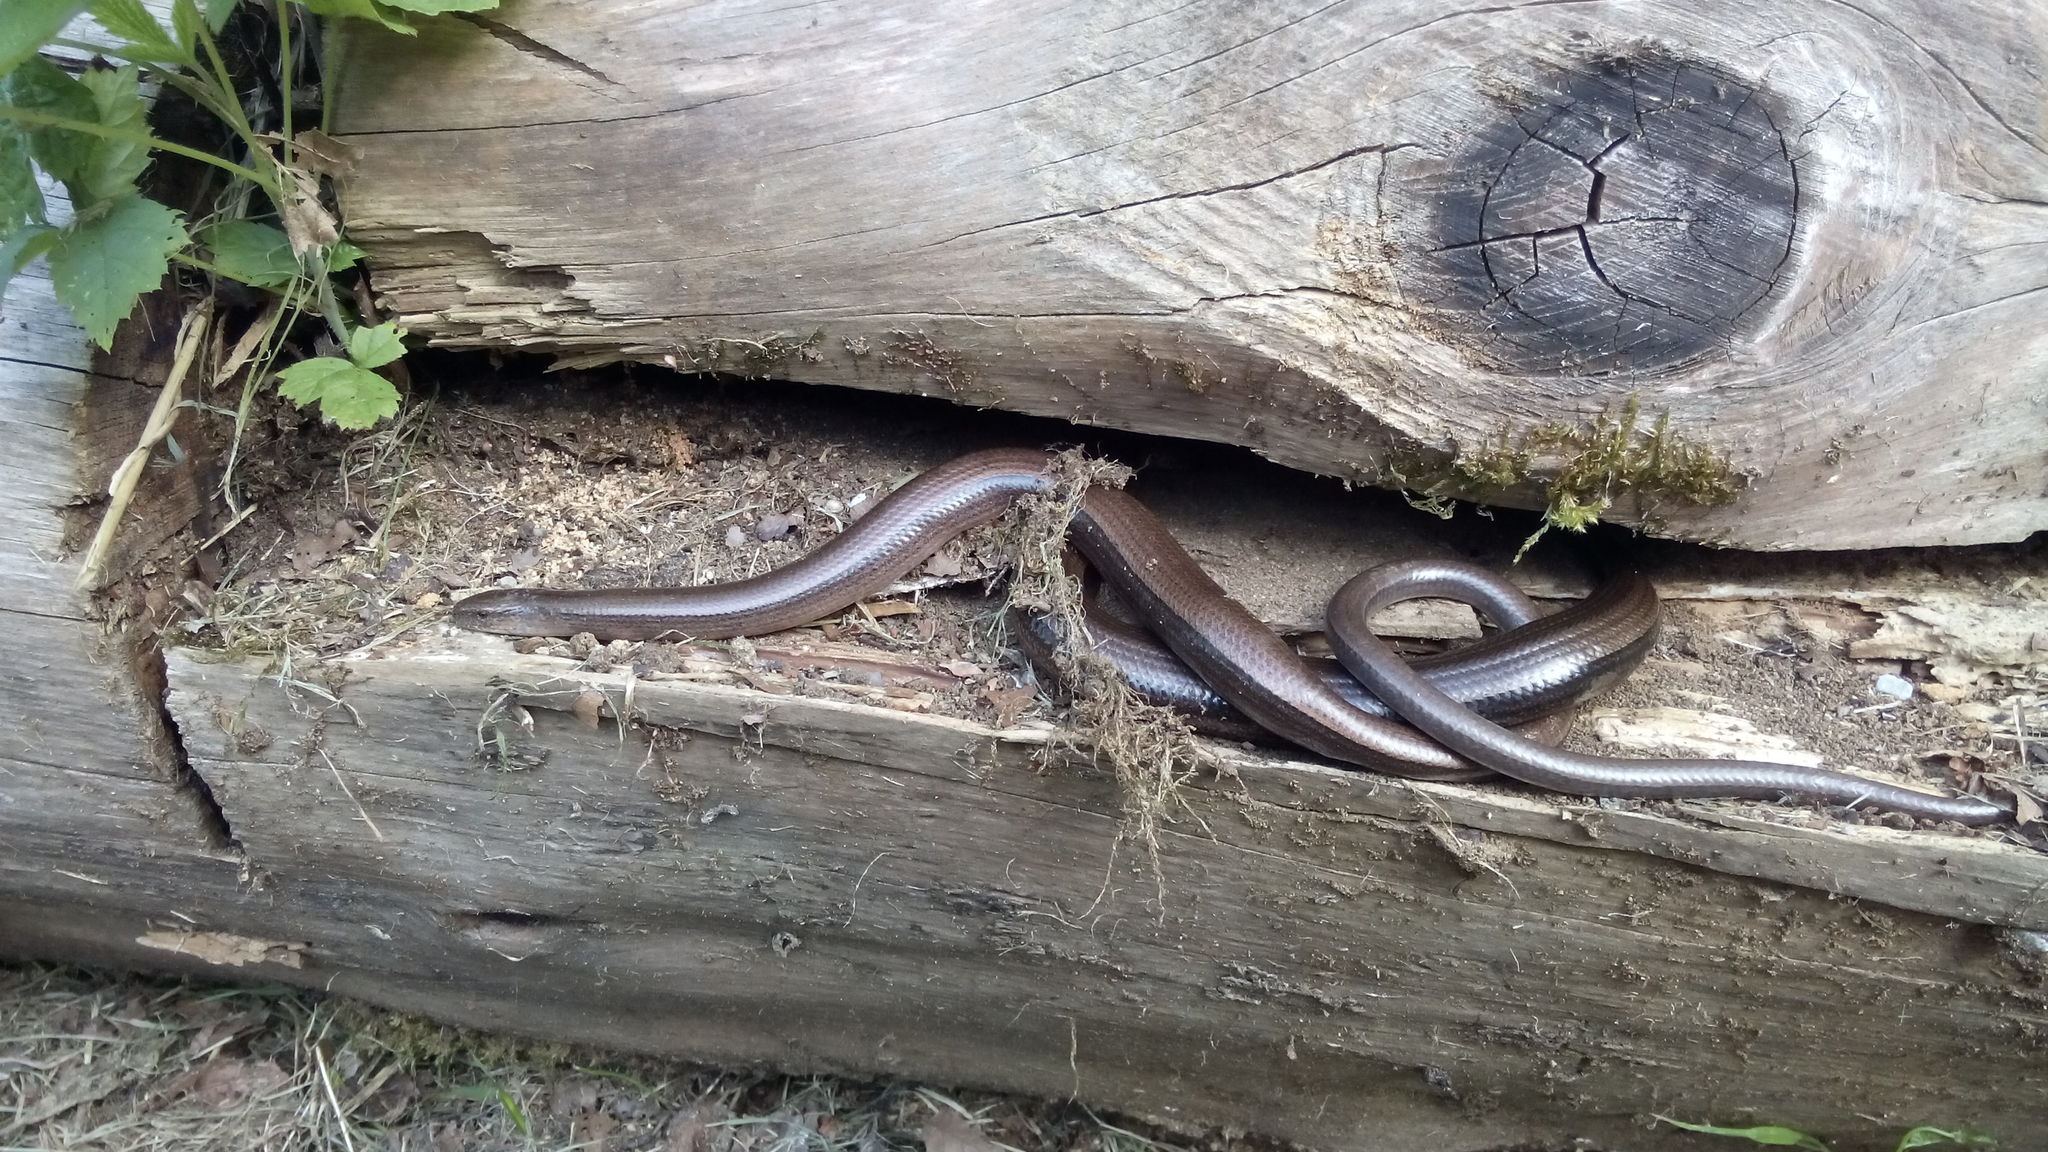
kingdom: Animalia
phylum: Chordata
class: Squamata
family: Anguidae
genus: Anguis
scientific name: Anguis fragilis
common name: Slow worm
